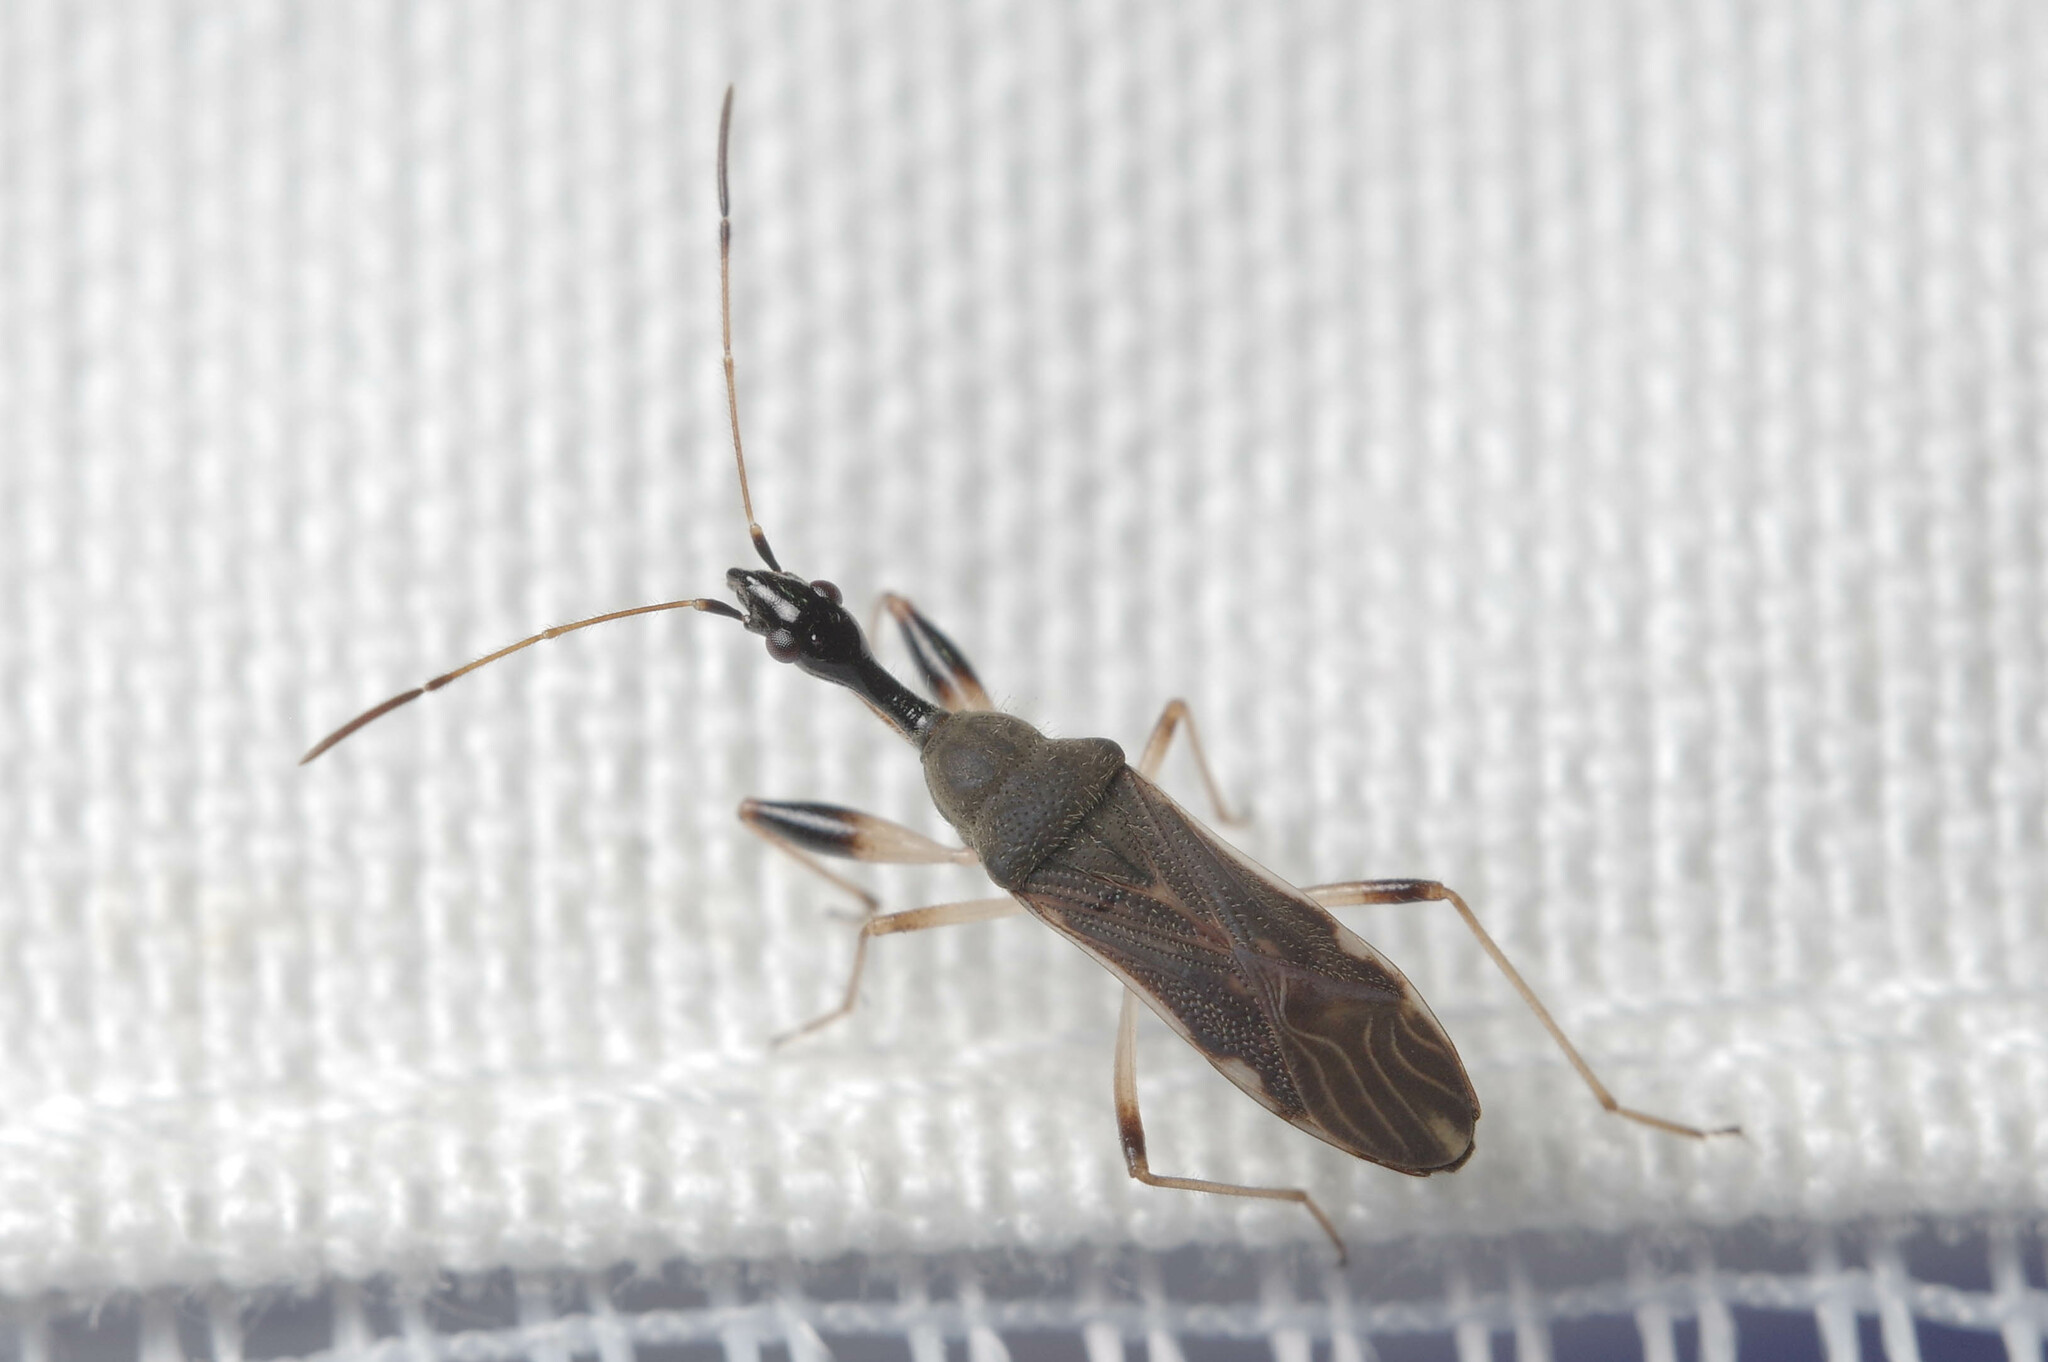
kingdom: Animalia
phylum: Arthropoda
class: Insecta
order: Hemiptera
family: Rhyparochromidae
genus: Myodocha
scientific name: Myodocha serripes
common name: Long-necked seed bug
